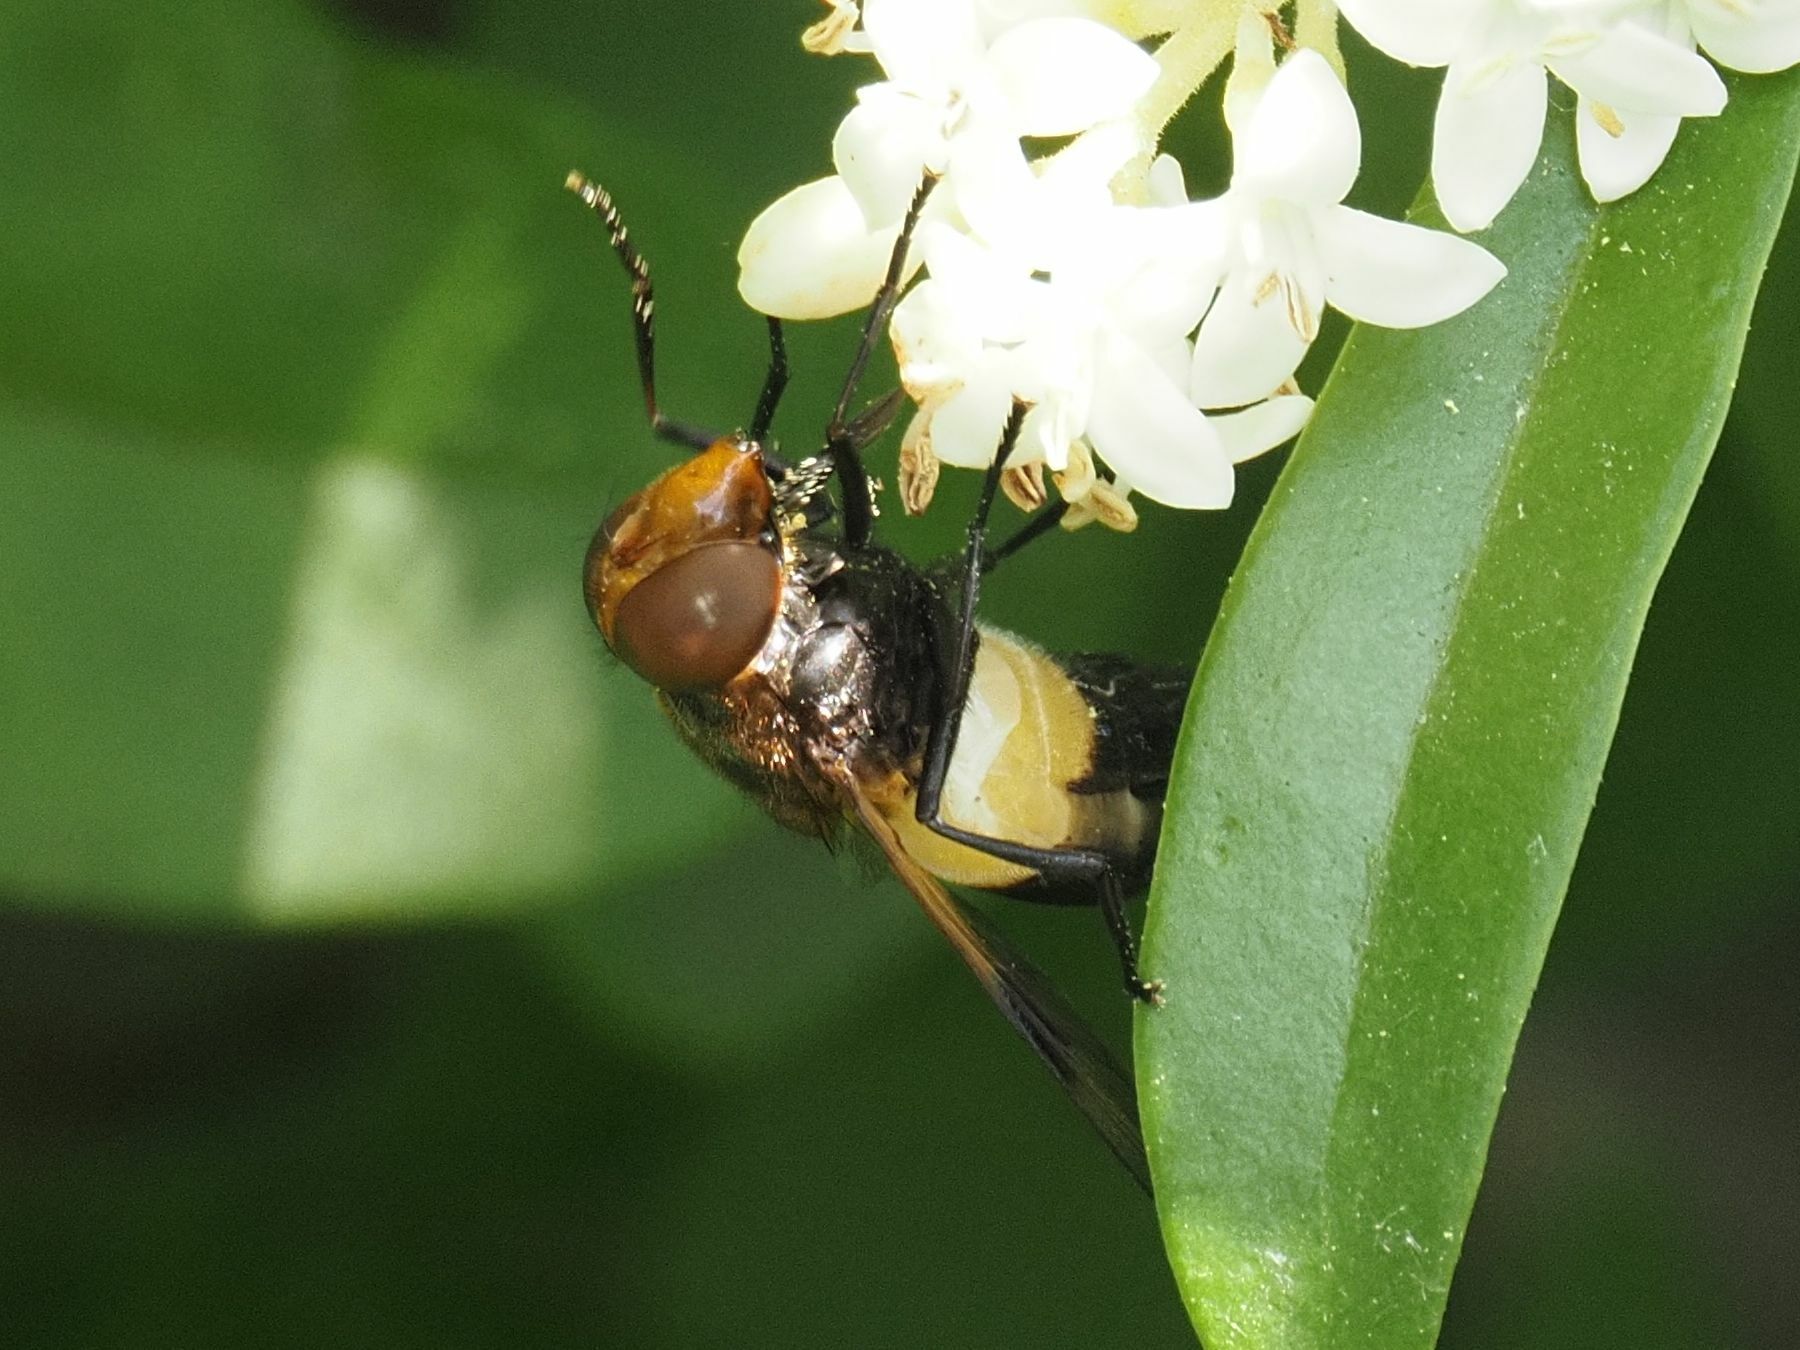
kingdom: Animalia
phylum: Arthropoda
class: Insecta
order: Diptera
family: Syrphidae
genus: Volucella
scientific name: Volucella pellucens
